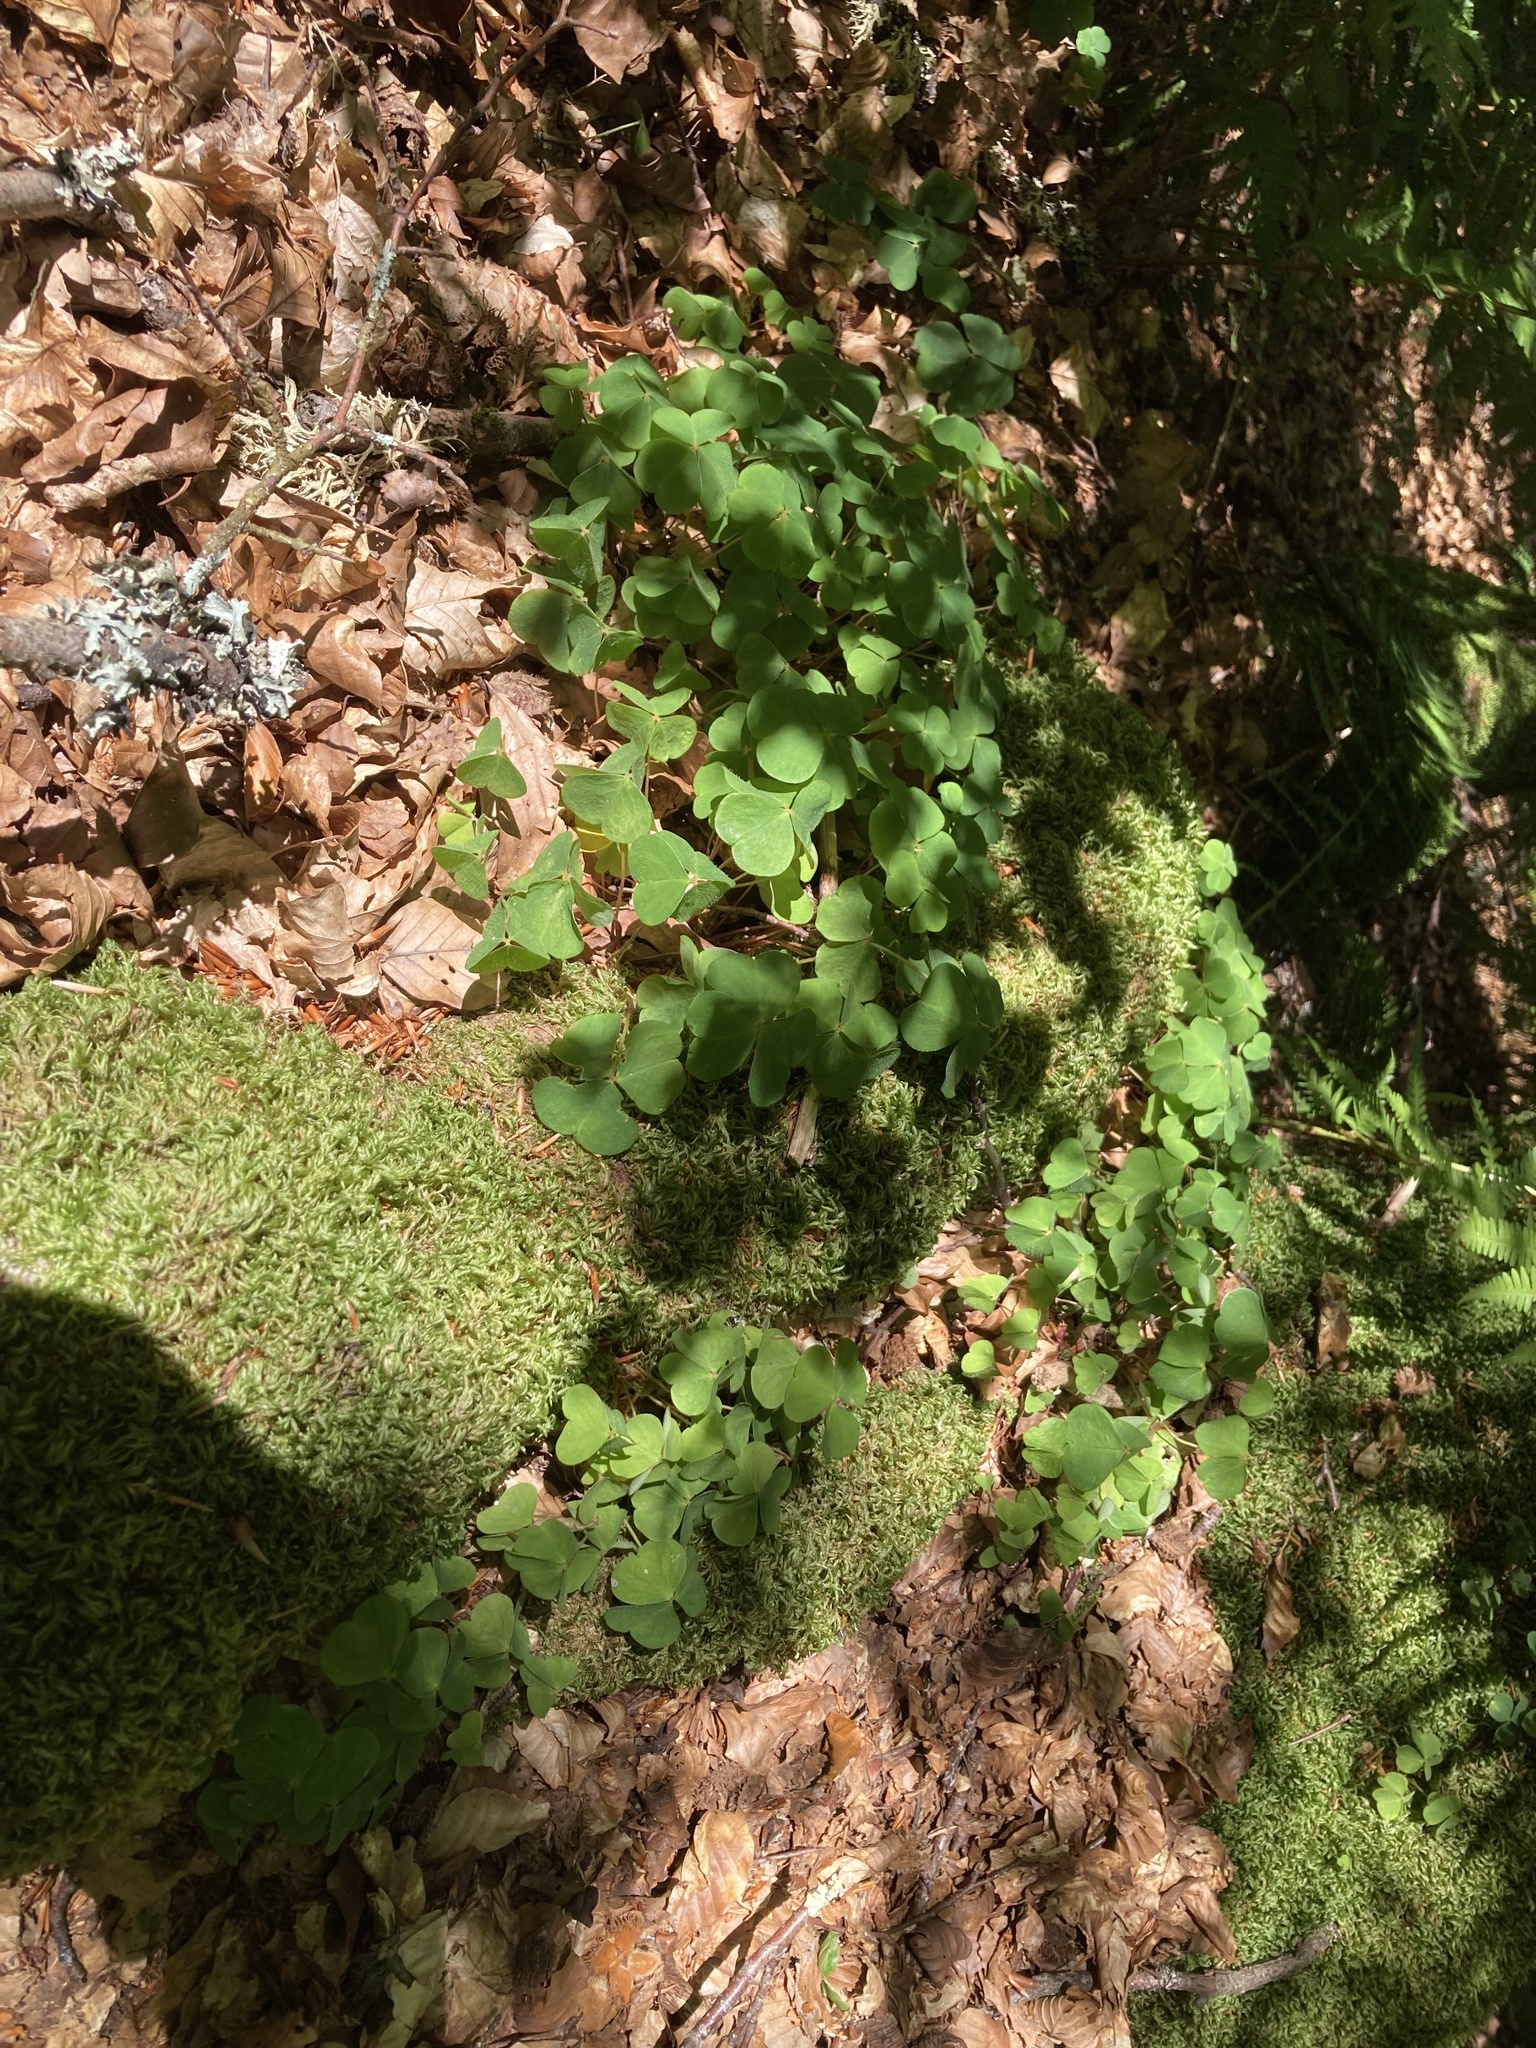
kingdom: Plantae
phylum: Tracheophyta
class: Magnoliopsida
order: Oxalidales
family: Oxalidaceae
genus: Oxalis
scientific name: Oxalis acetosella
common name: Wood-sorrel
